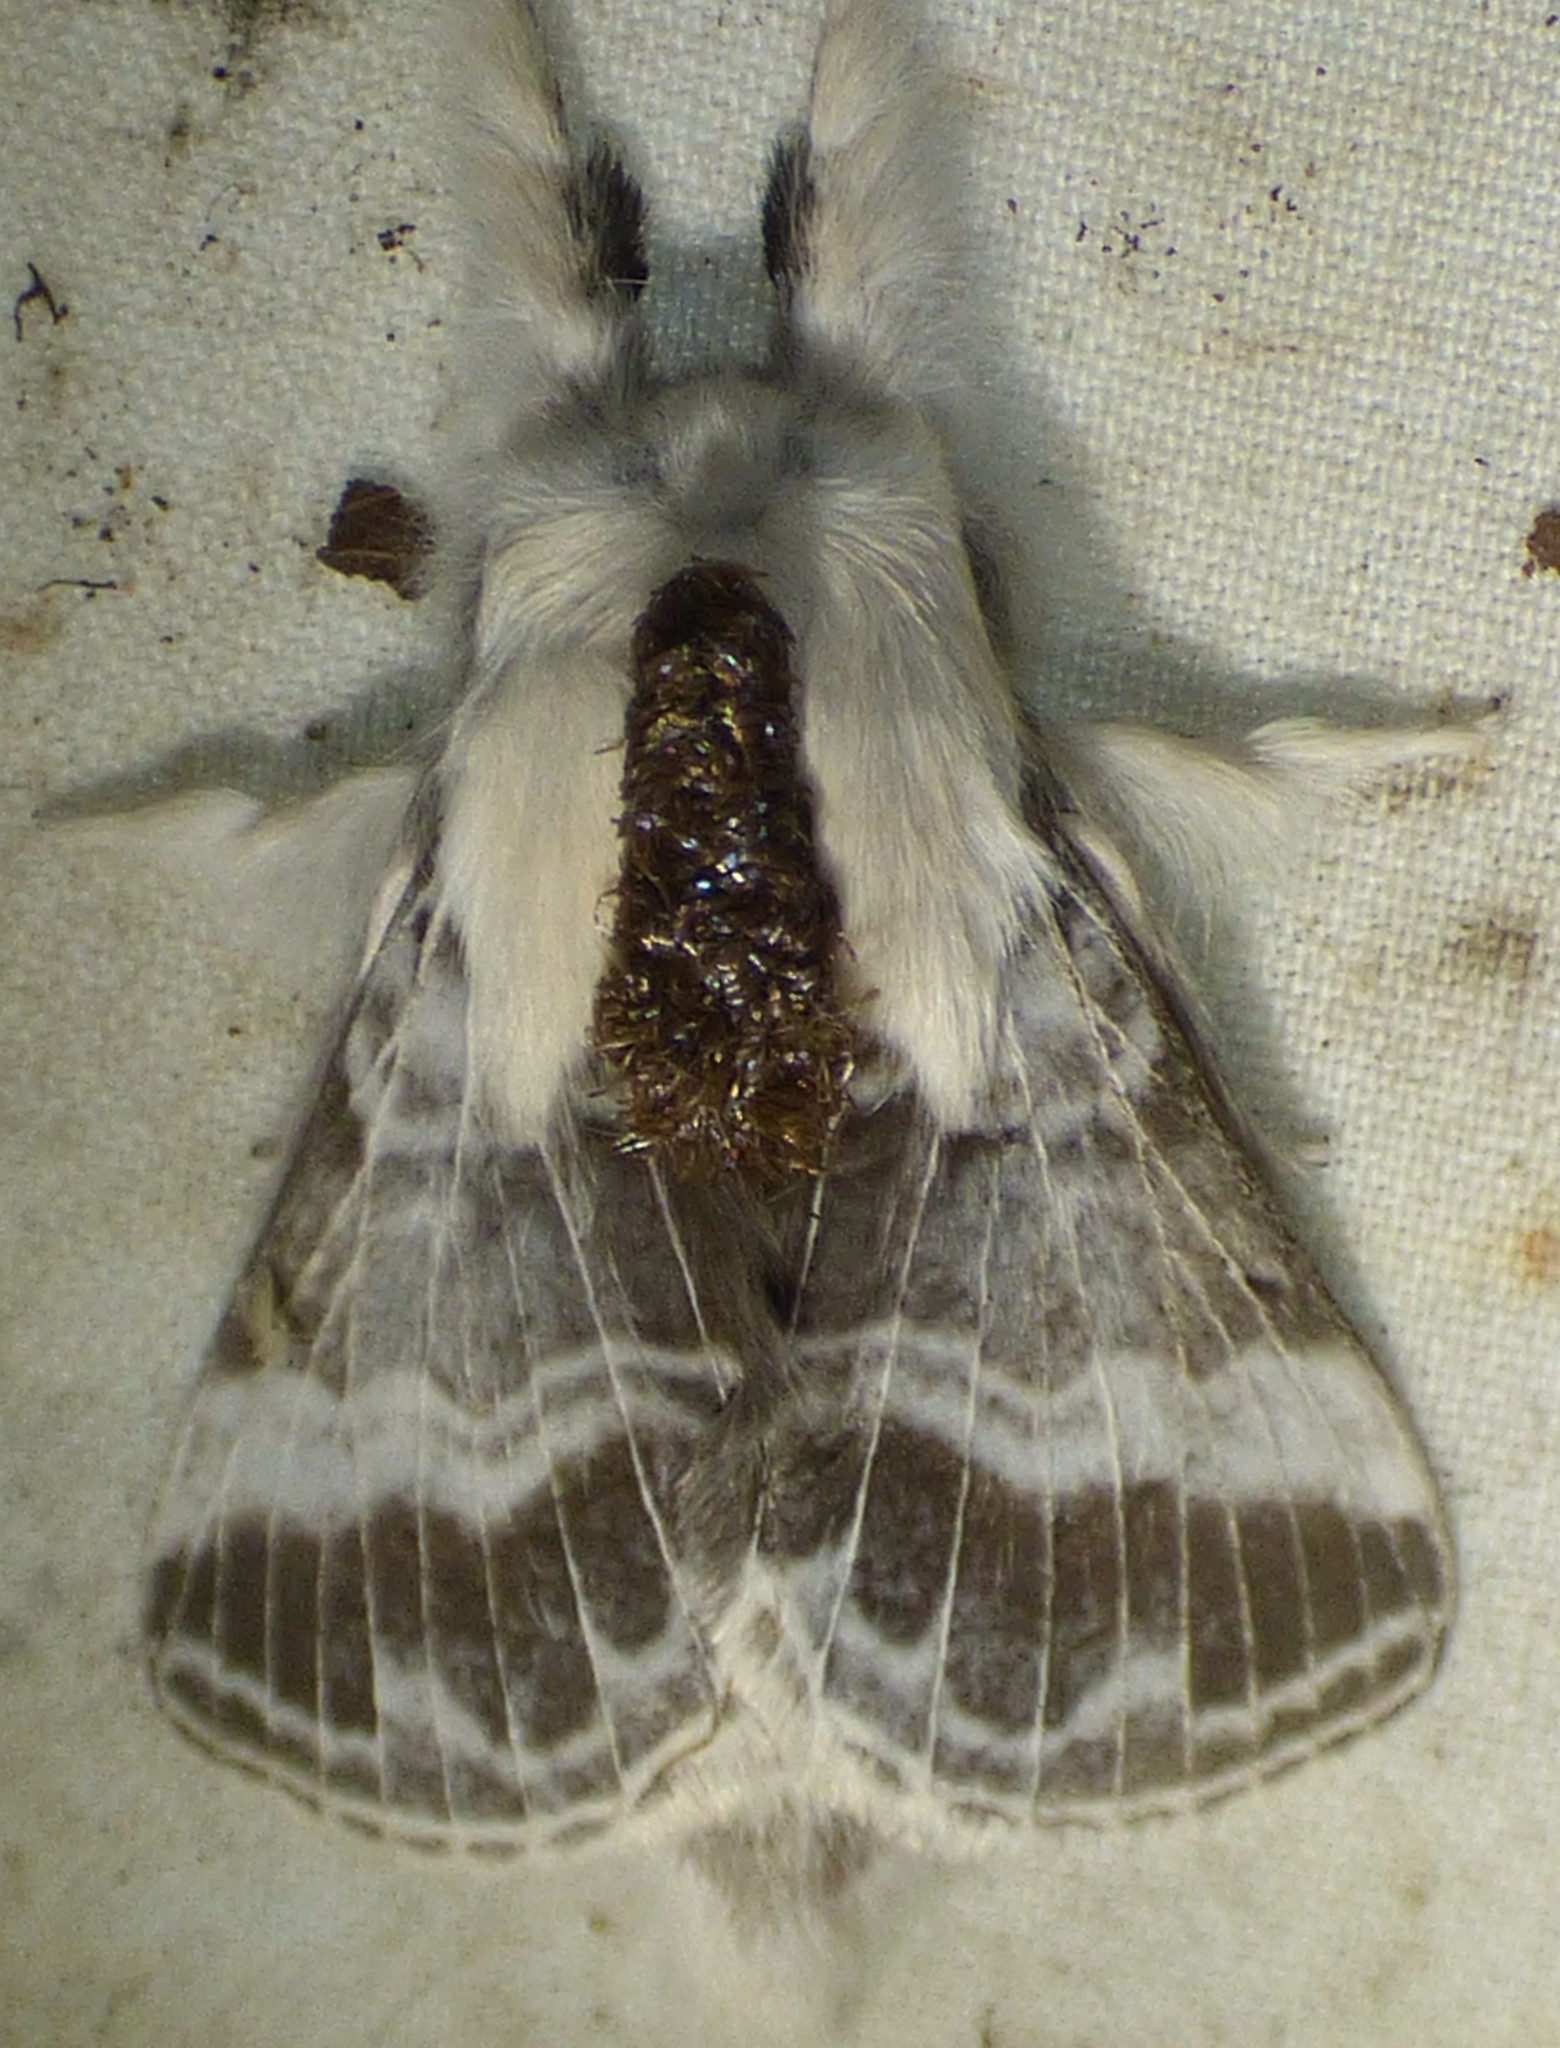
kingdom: Animalia
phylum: Arthropoda
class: Insecta
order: Lepidoptera
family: Lasiocampidae
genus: Tolype
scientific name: Tolype velleda
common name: Large tolype moth
